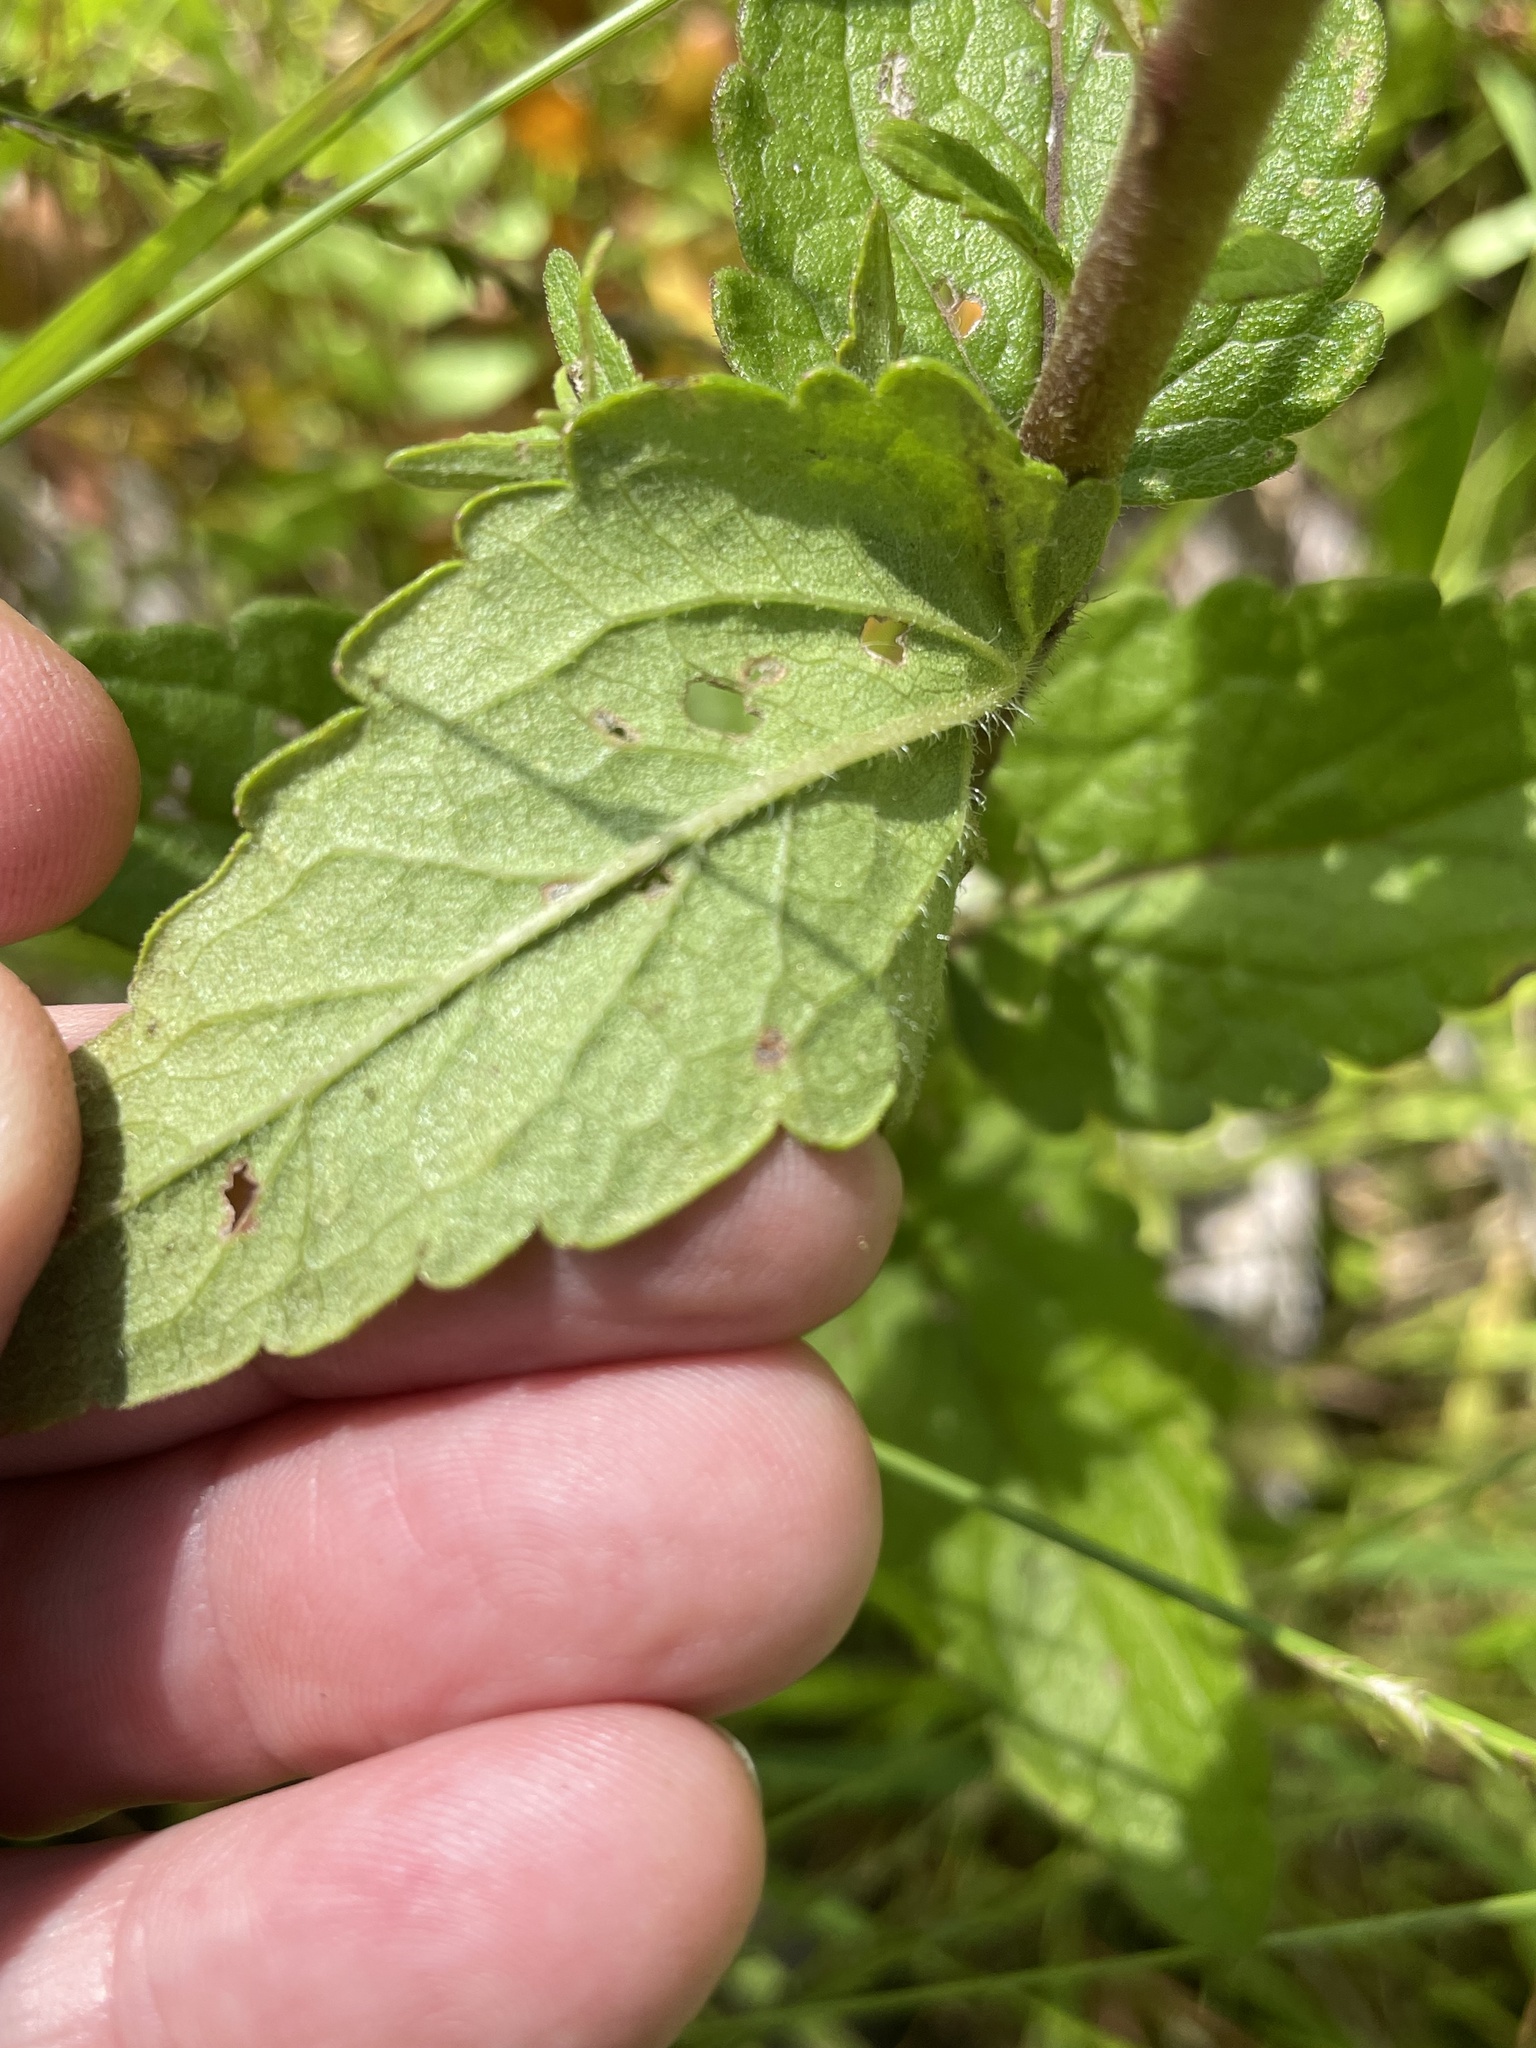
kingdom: Plantae
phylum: Tracheophyta
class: Magnoliopsida
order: Asterales
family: Asteraceae
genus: Eupatorium
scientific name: Eupatorium pilosum
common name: Rough boneset
